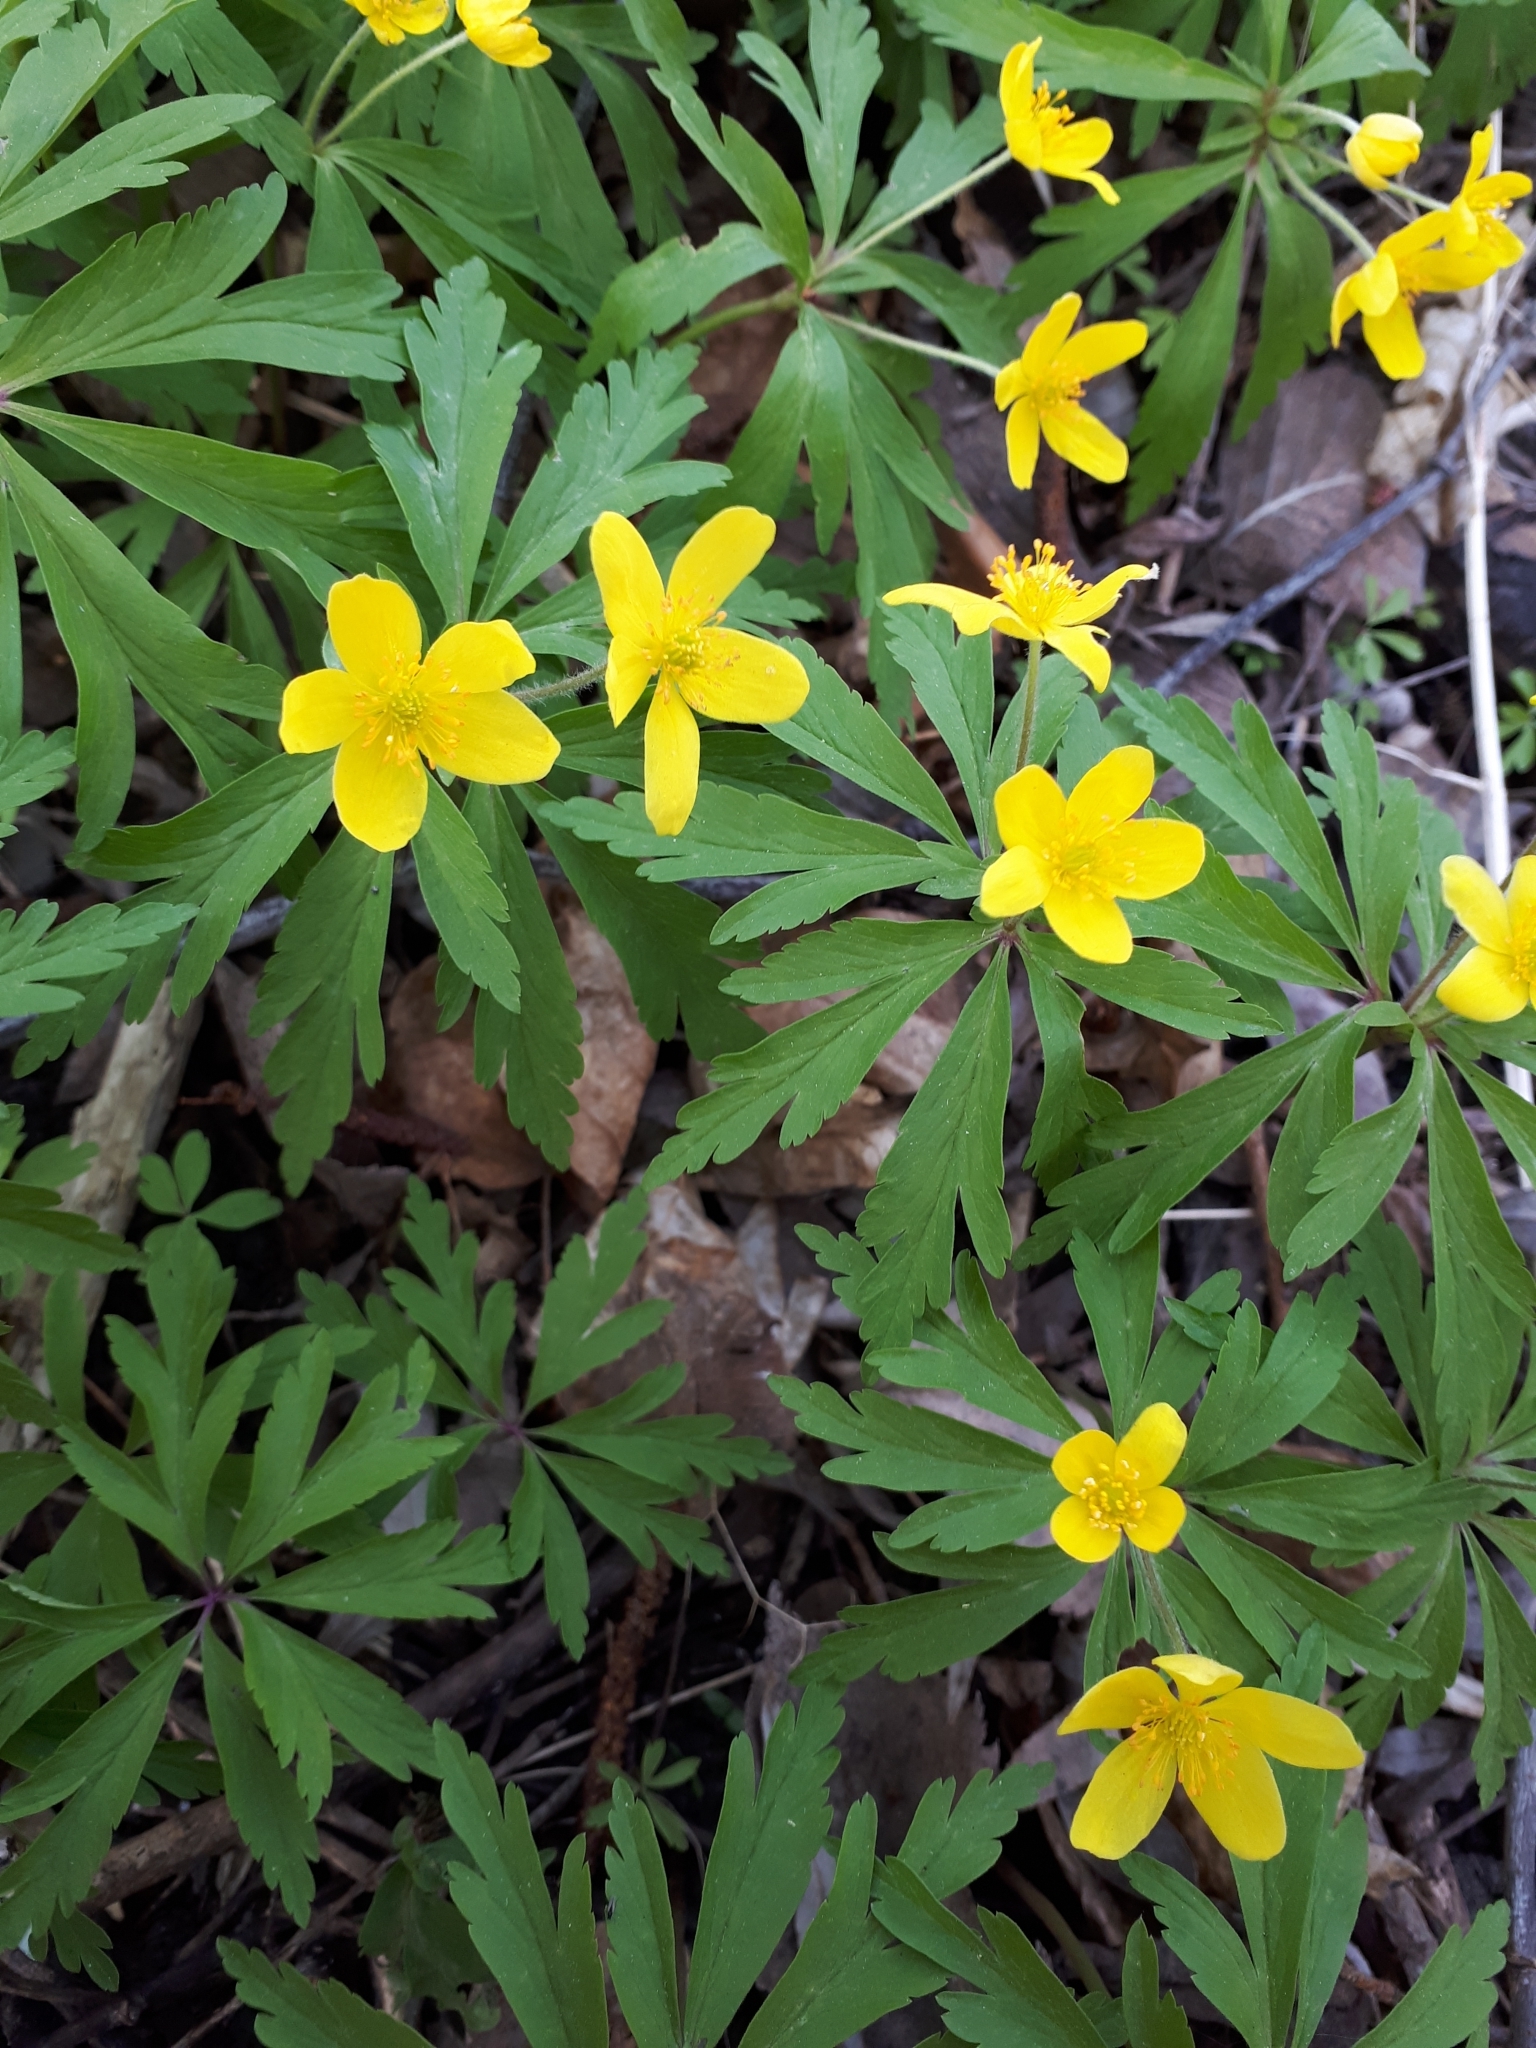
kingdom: Plantae
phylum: Tracheophyta
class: Magnoliopsida
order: Ranunculales
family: Ranunculaceae
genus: Anemone
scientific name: Anemone ranunculoides
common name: Yellow anemone
